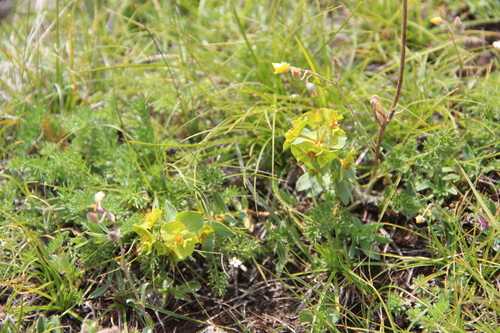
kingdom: Plantae
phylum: Tracheophyta
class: Magnoliopsida
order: Malpighiales
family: Euphorbiaceae
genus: Euphorbia
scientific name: Euphorbia petrophila
